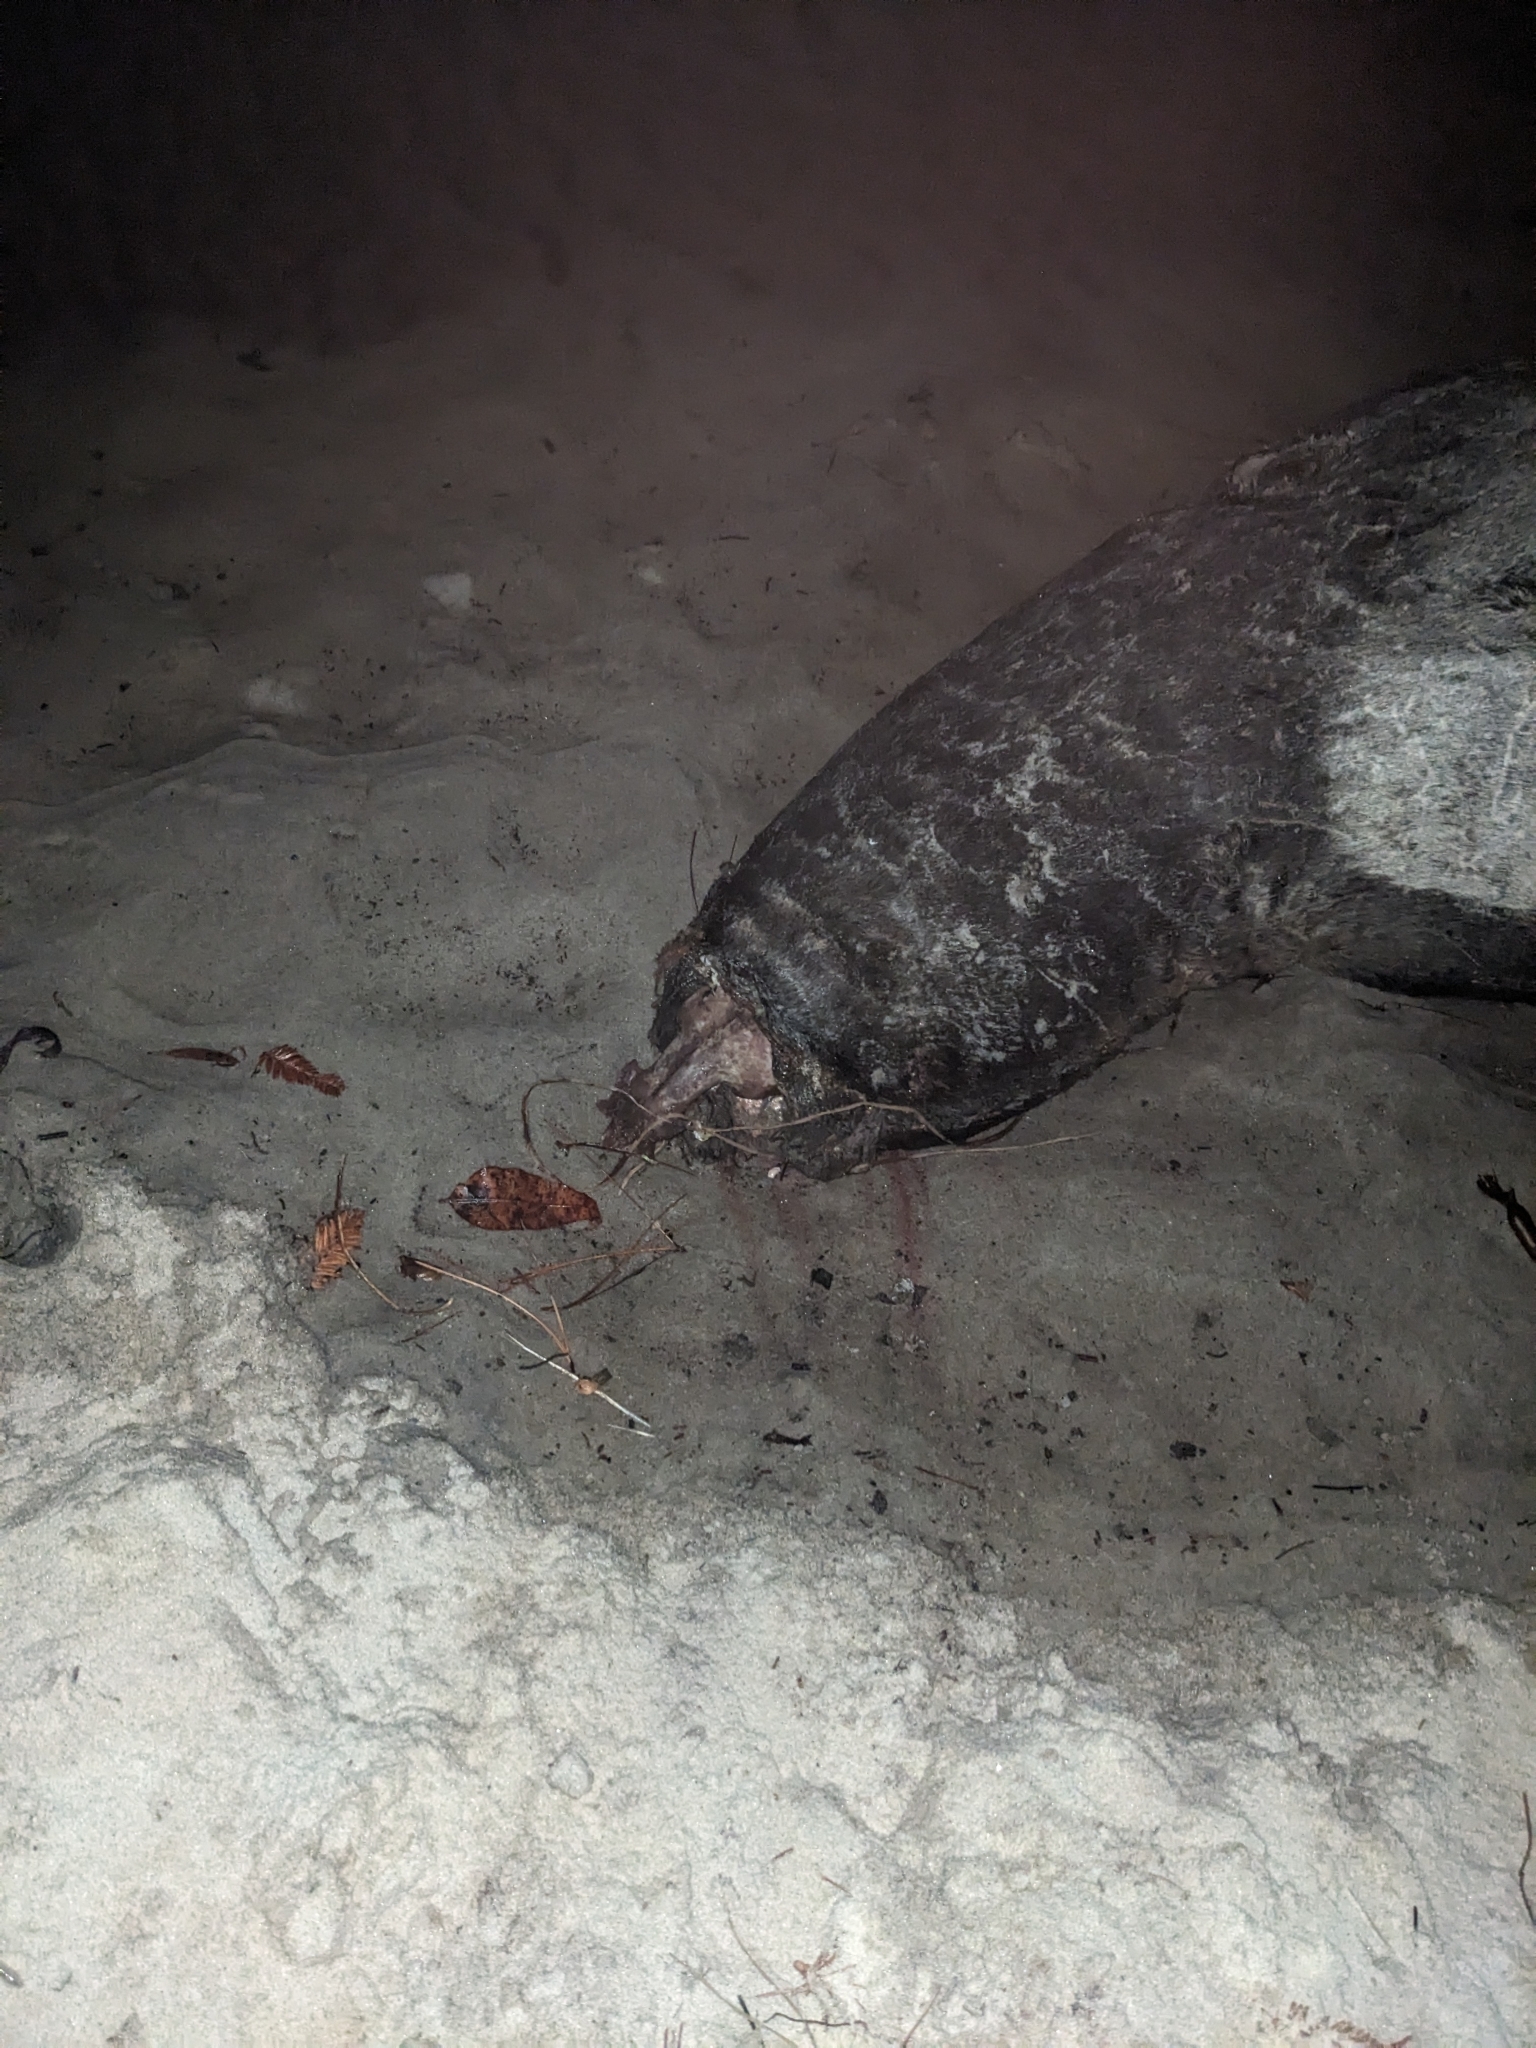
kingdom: Animalia
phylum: Chordata
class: Mammalia
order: Carnivora
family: Otariidae
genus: Zalophus
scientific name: Zalophus californianus
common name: California sea lion
